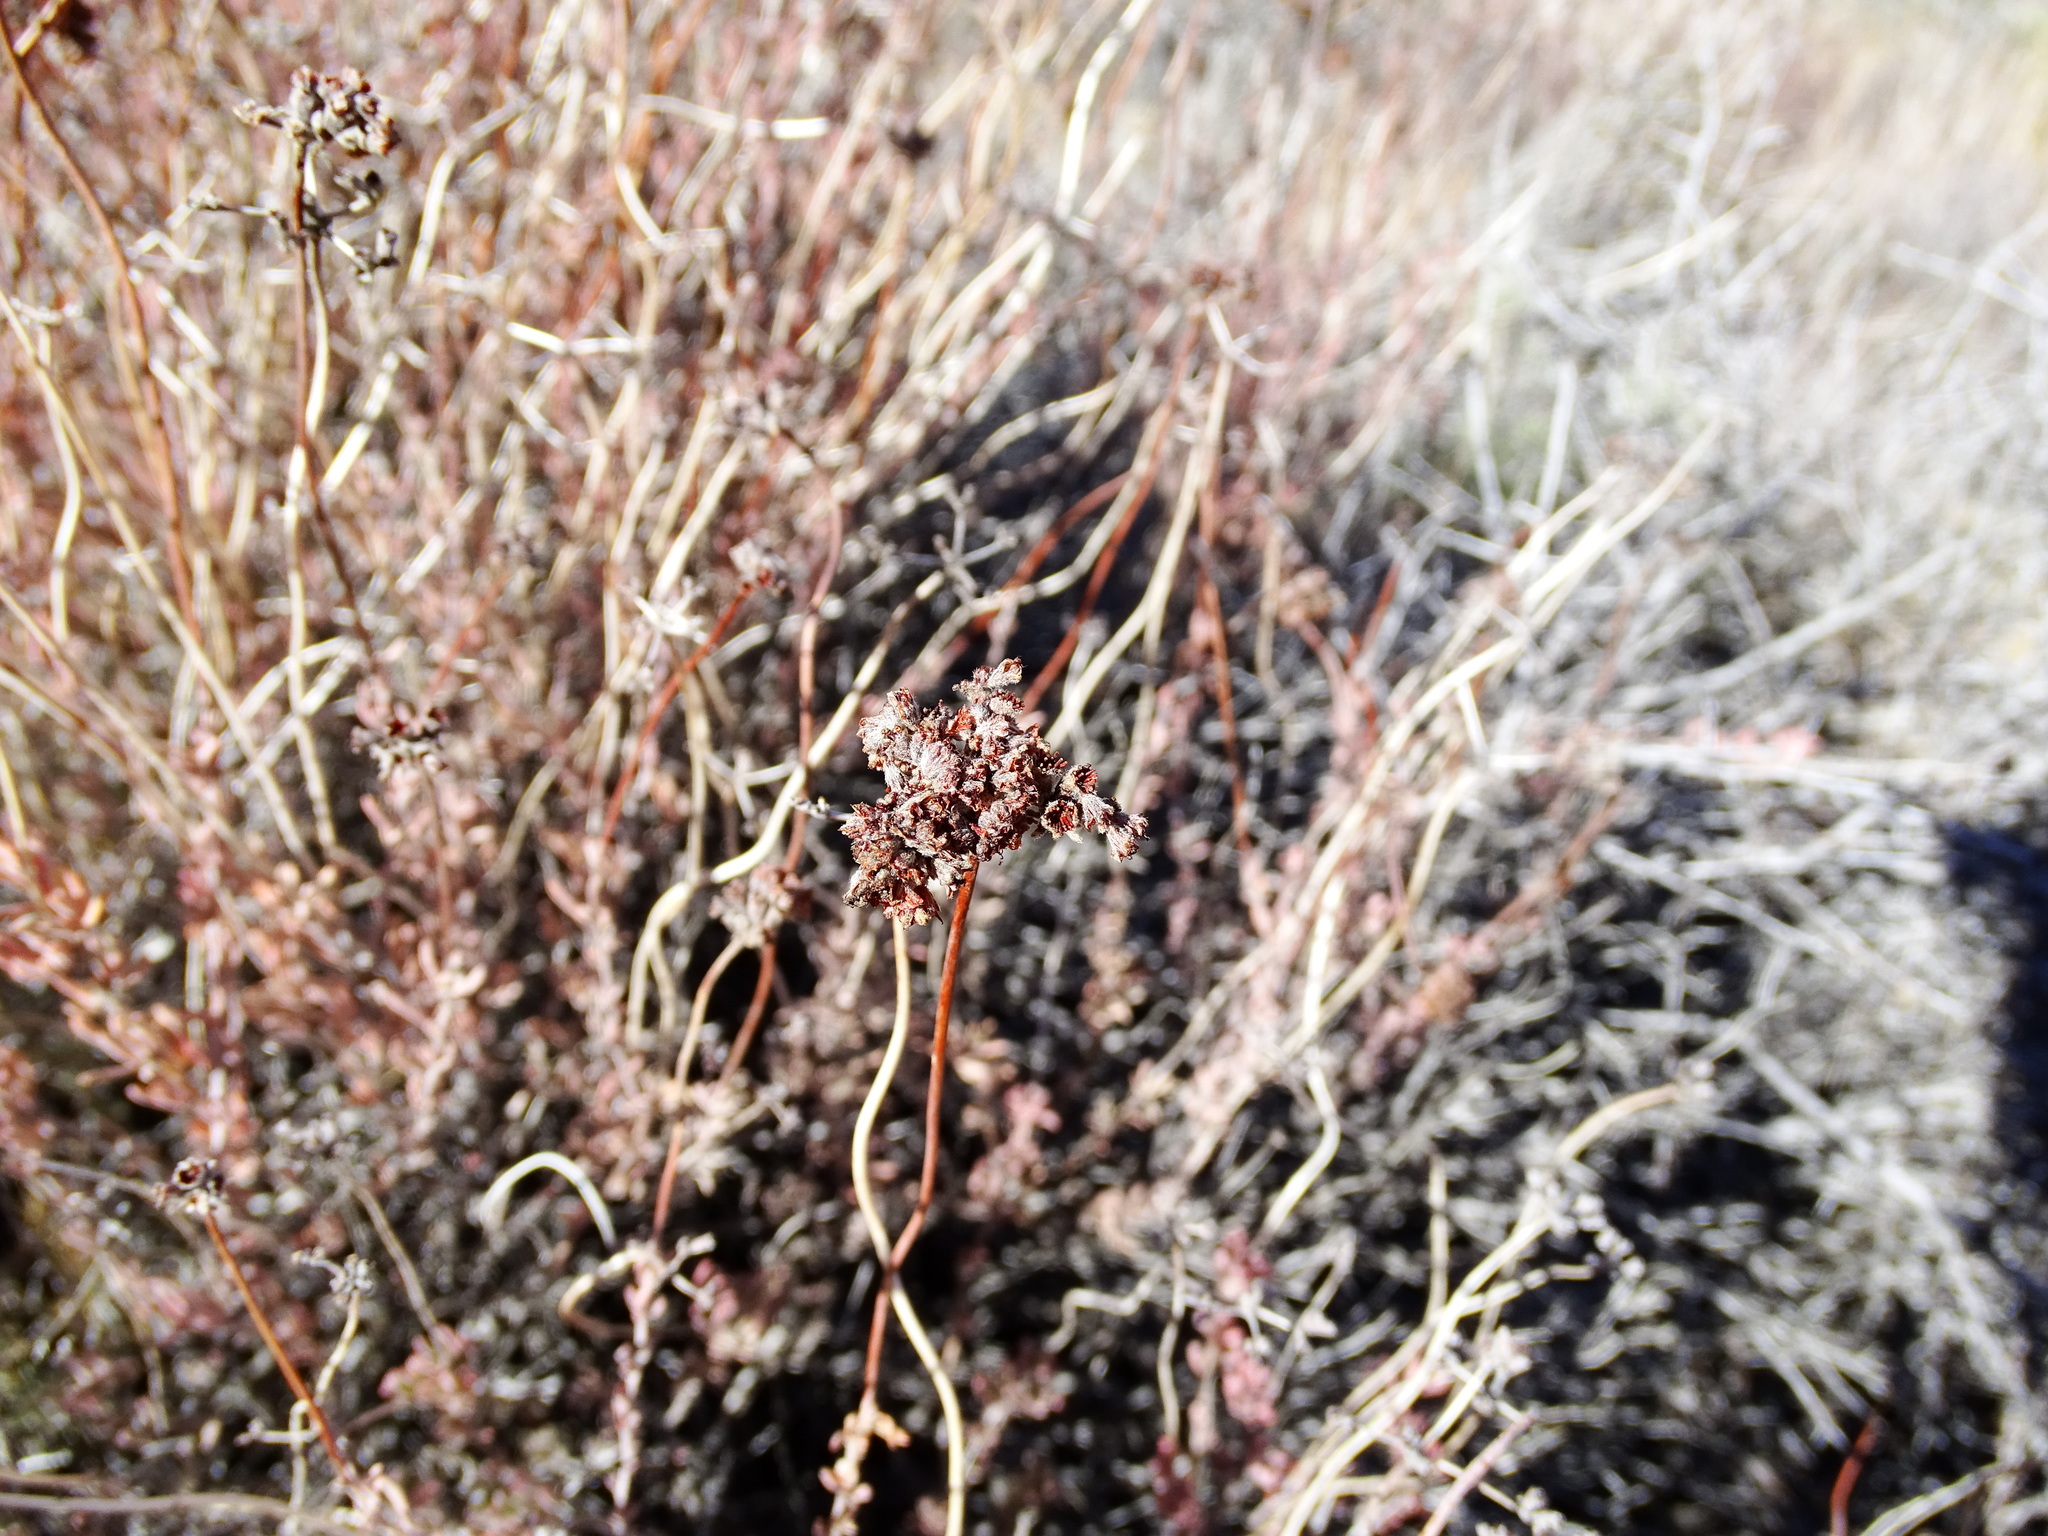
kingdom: Plantae
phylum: Tracheophyta
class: Magnoliopsida
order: Caryophyllales
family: Polygonaceae
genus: Eriogonum
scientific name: Eriogonum fasciculatum
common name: California wild buckwheat
